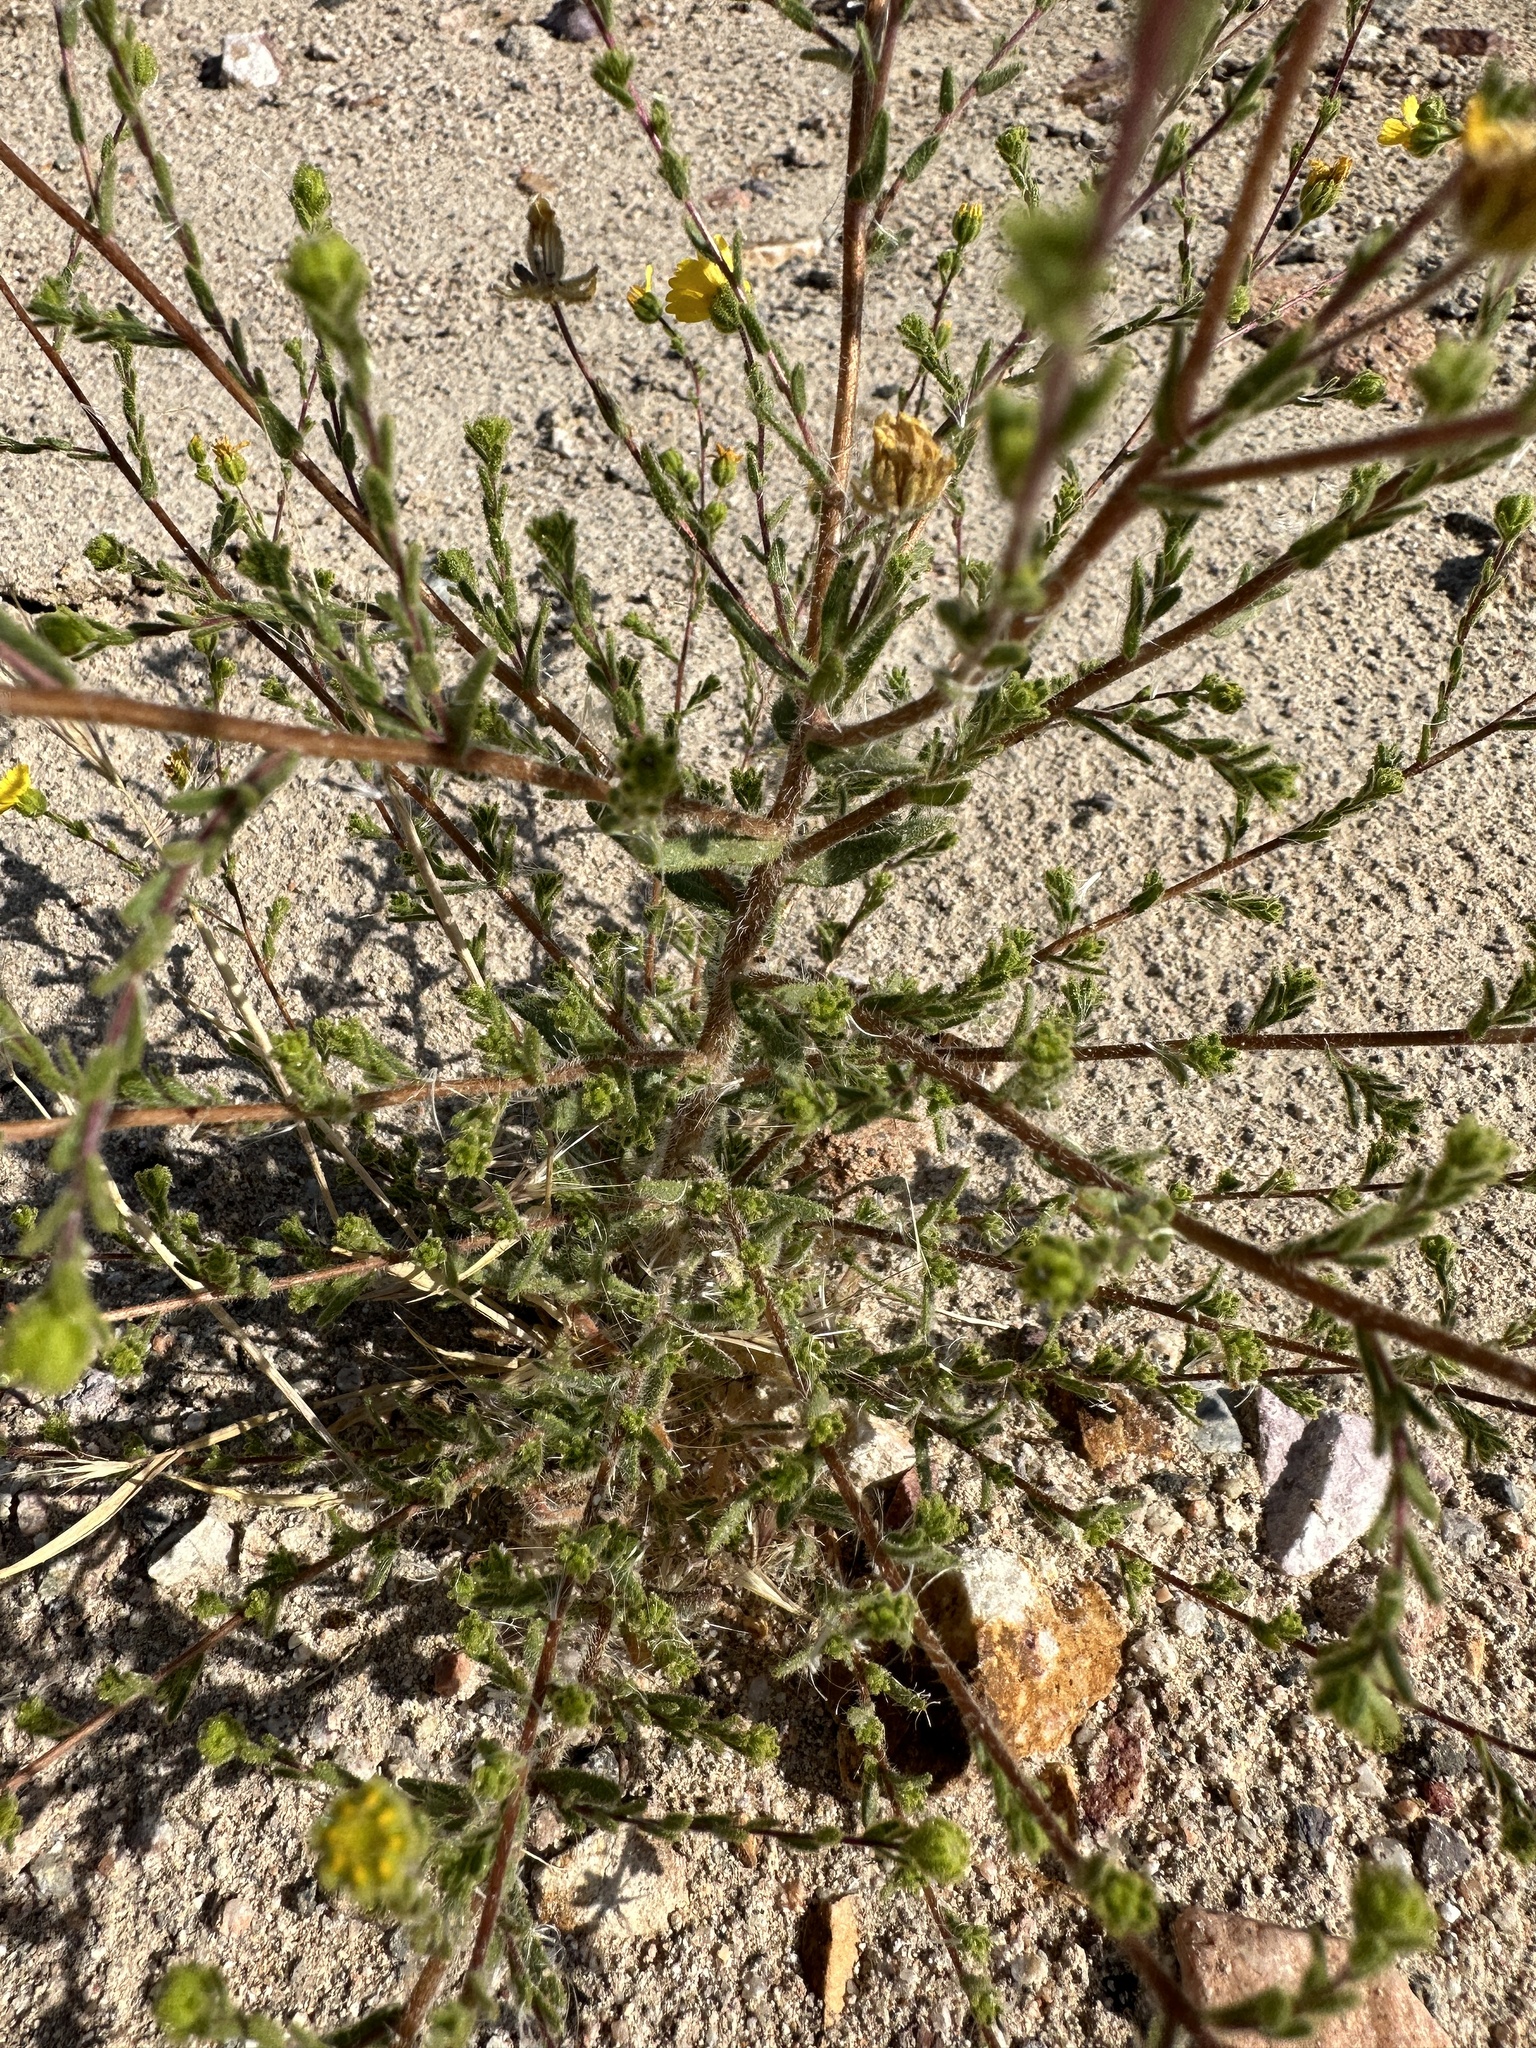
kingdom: Plantae
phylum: Tracheophyta
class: Magnoliopsida
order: Asterales
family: Asteraceae
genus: Deinandra
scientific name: Deinandra arida
